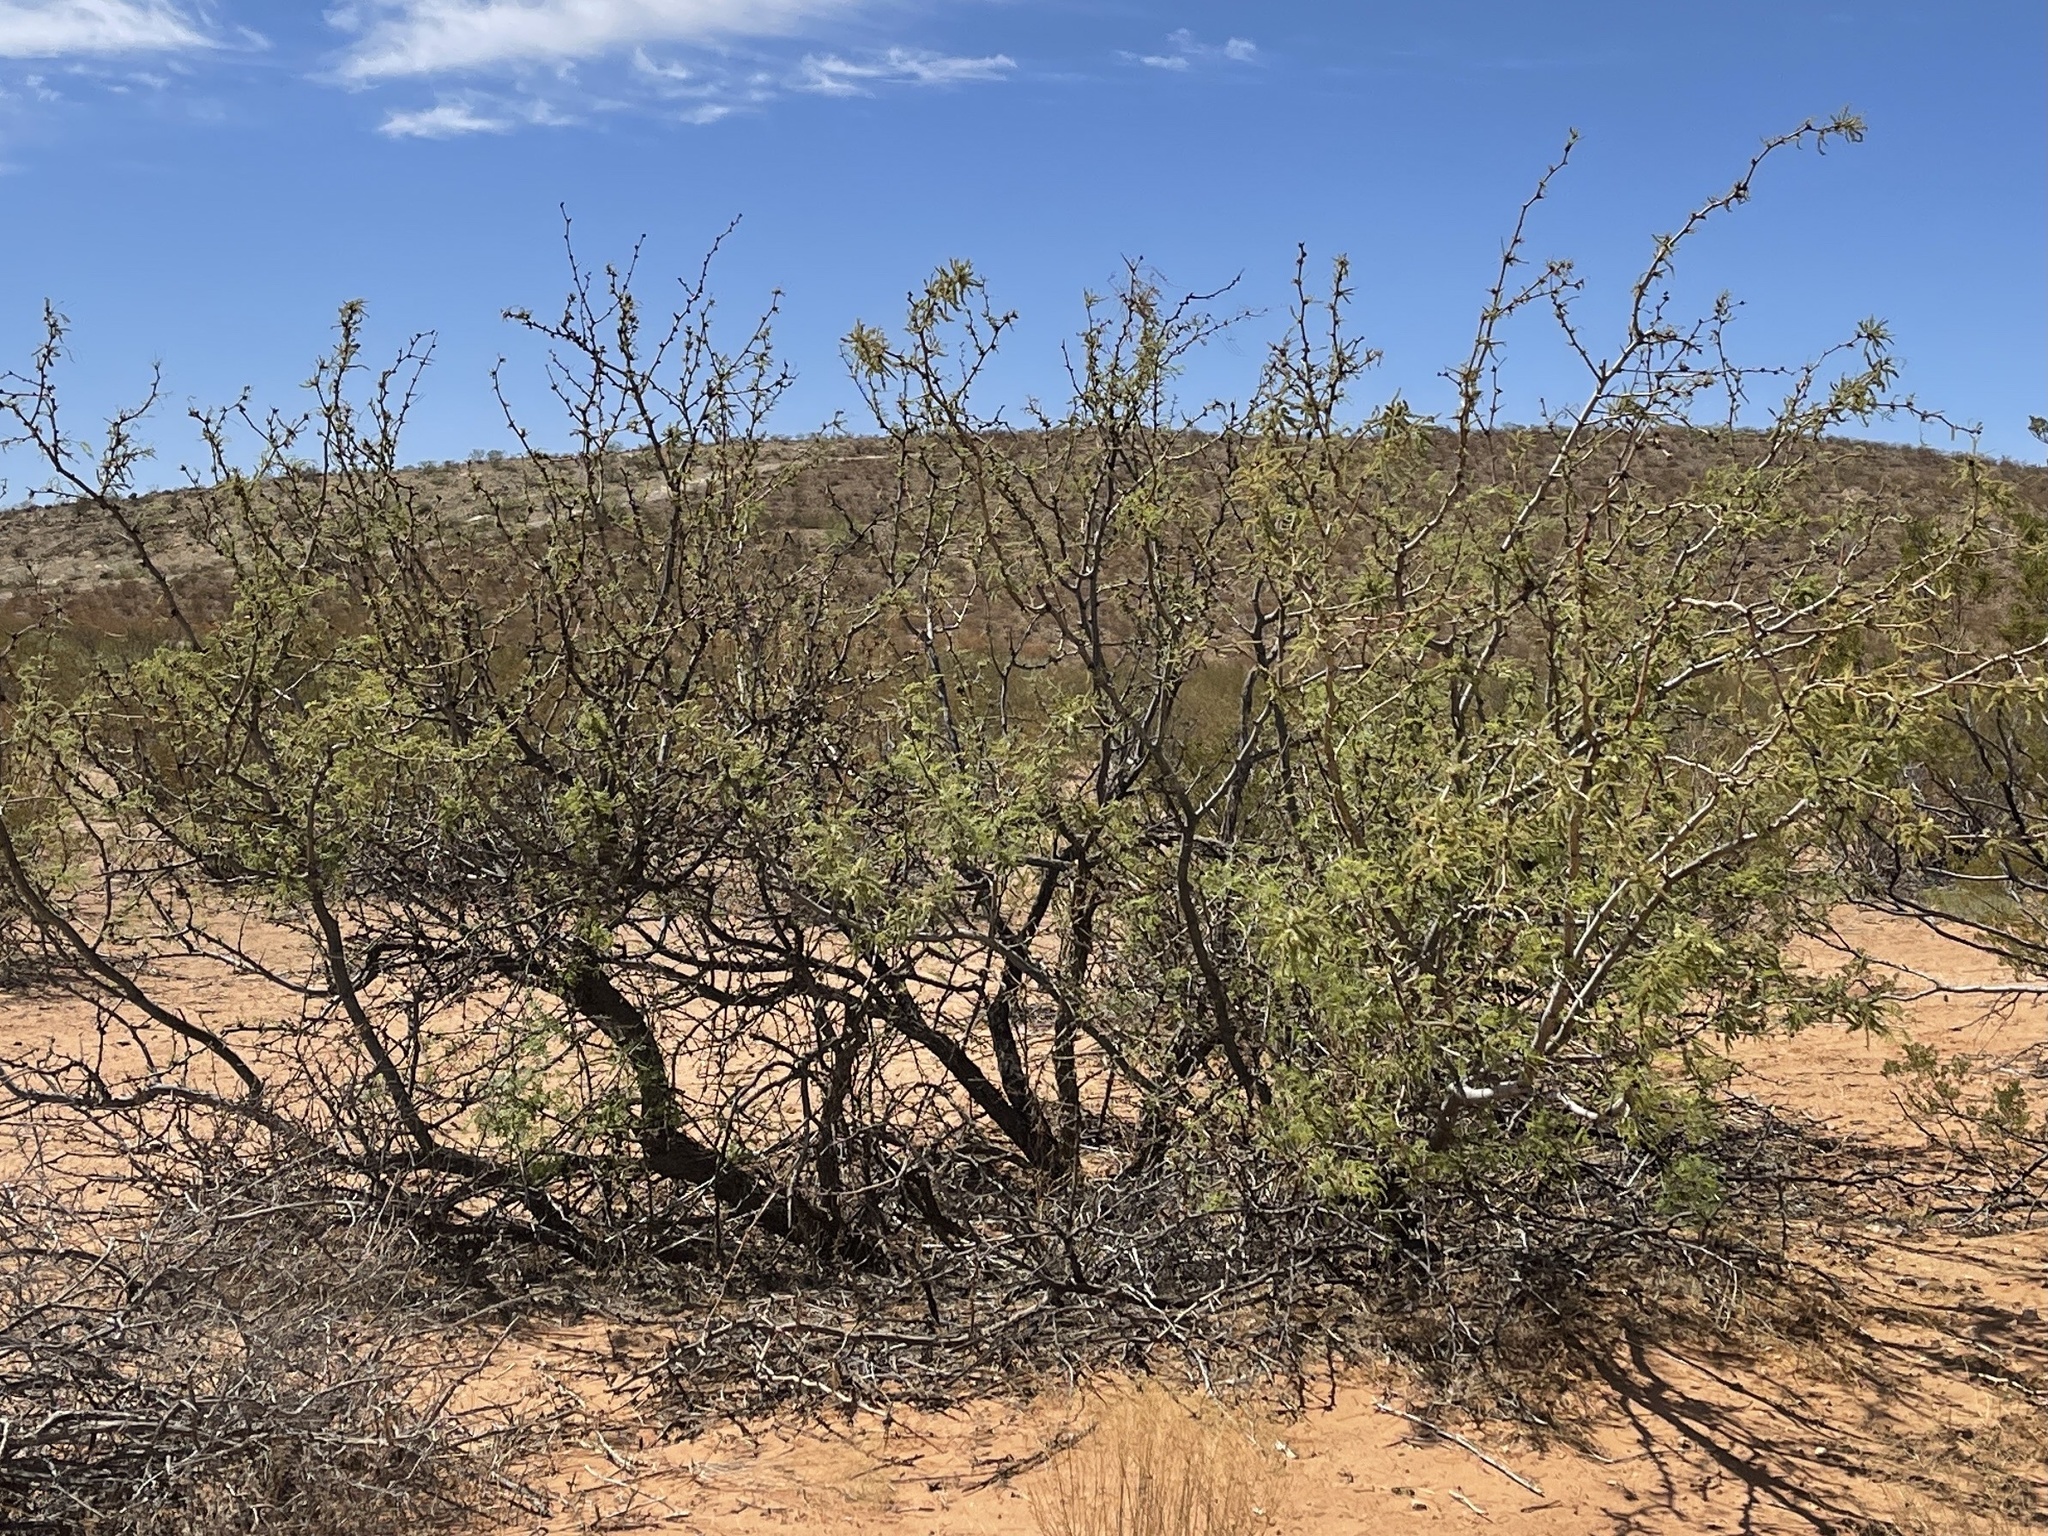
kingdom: Plantae
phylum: Tracheophyta
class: Magnoliopsida
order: Fabales
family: Fabaceae
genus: Prosopis
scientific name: Prosopis glandulosa
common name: Honey mesquite
